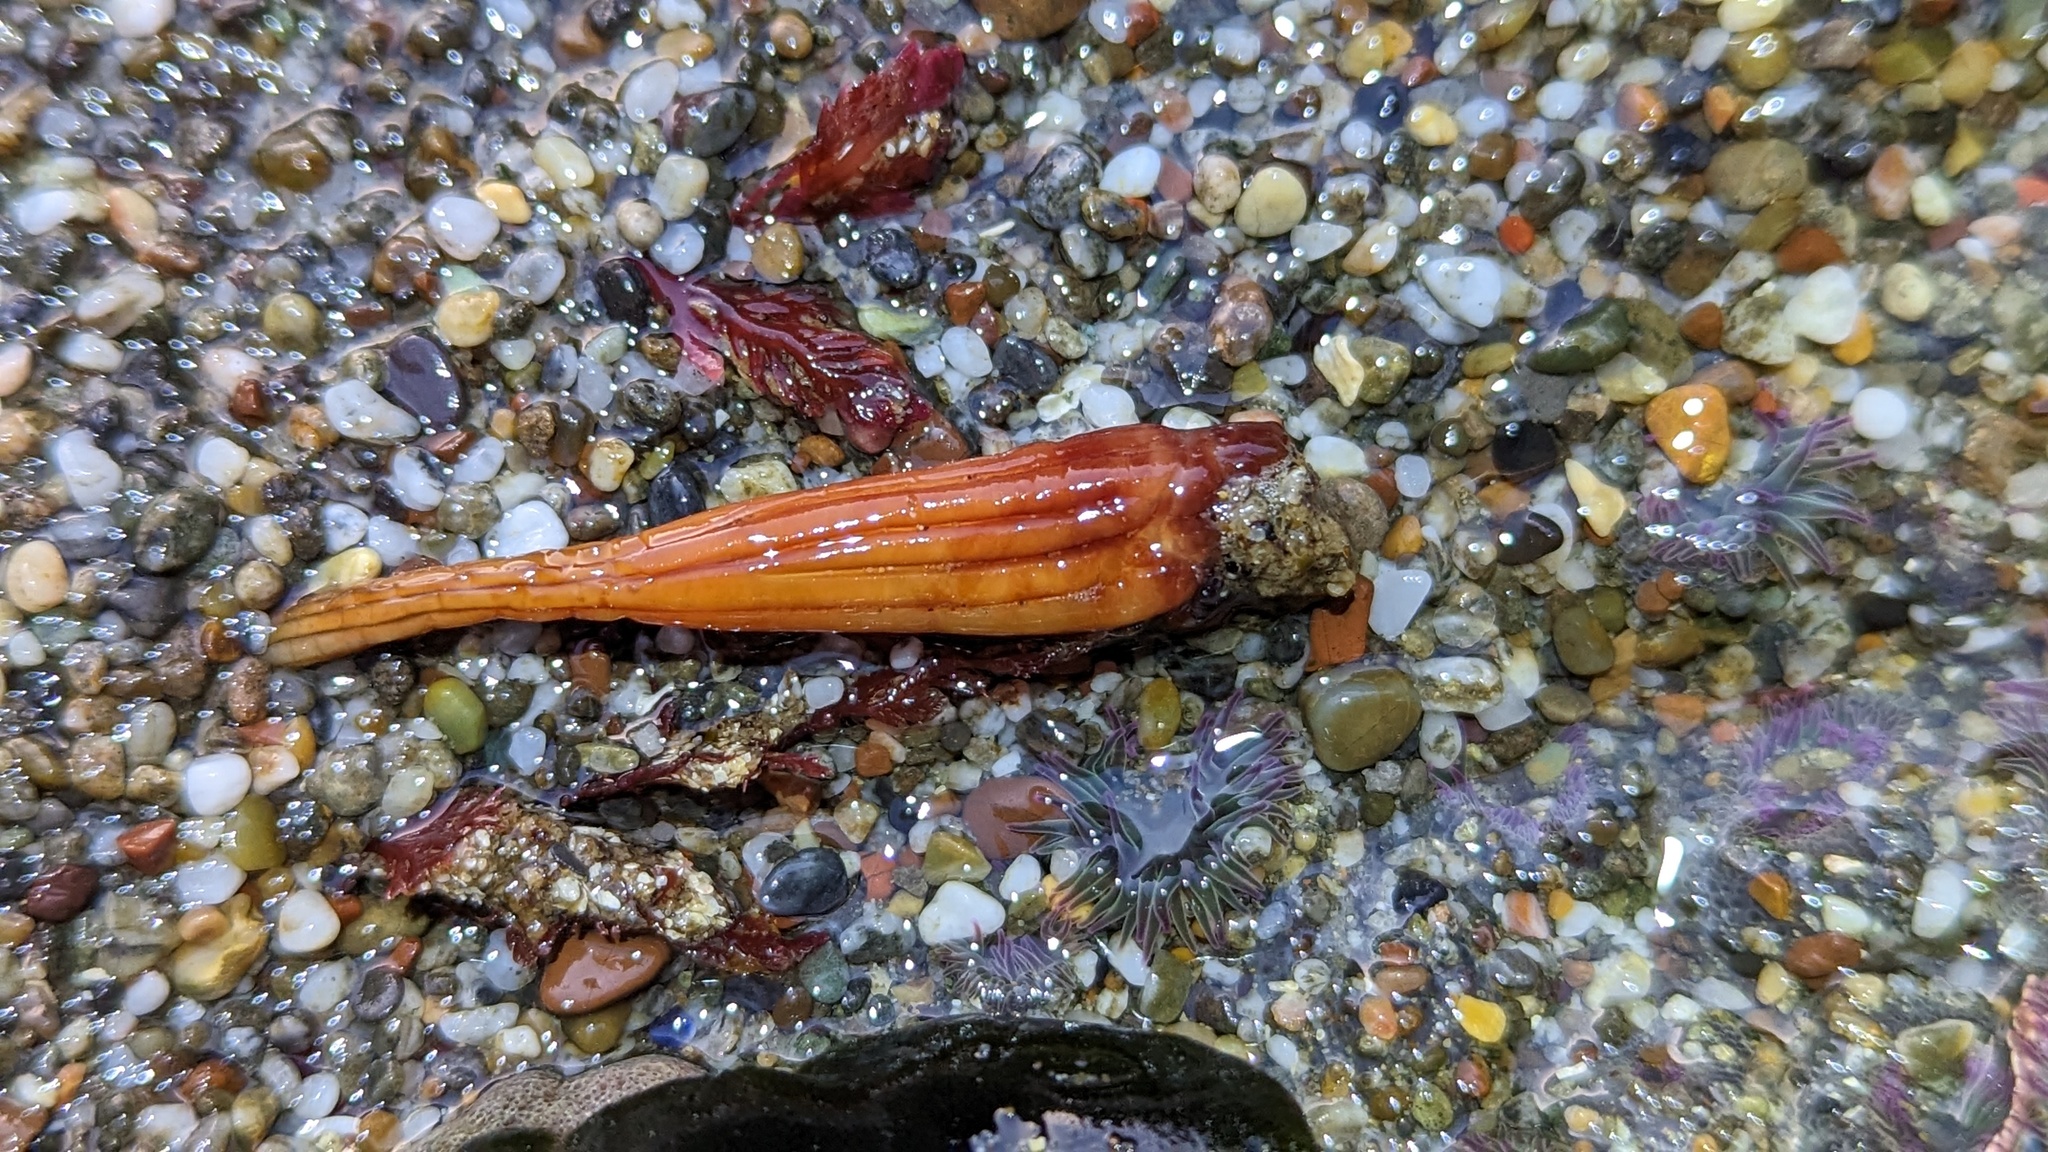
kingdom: Animalia
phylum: Chordata
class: Ascidiacea
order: Stolidobranchia
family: Styelidae
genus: Styela
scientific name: Styela montereyensis
